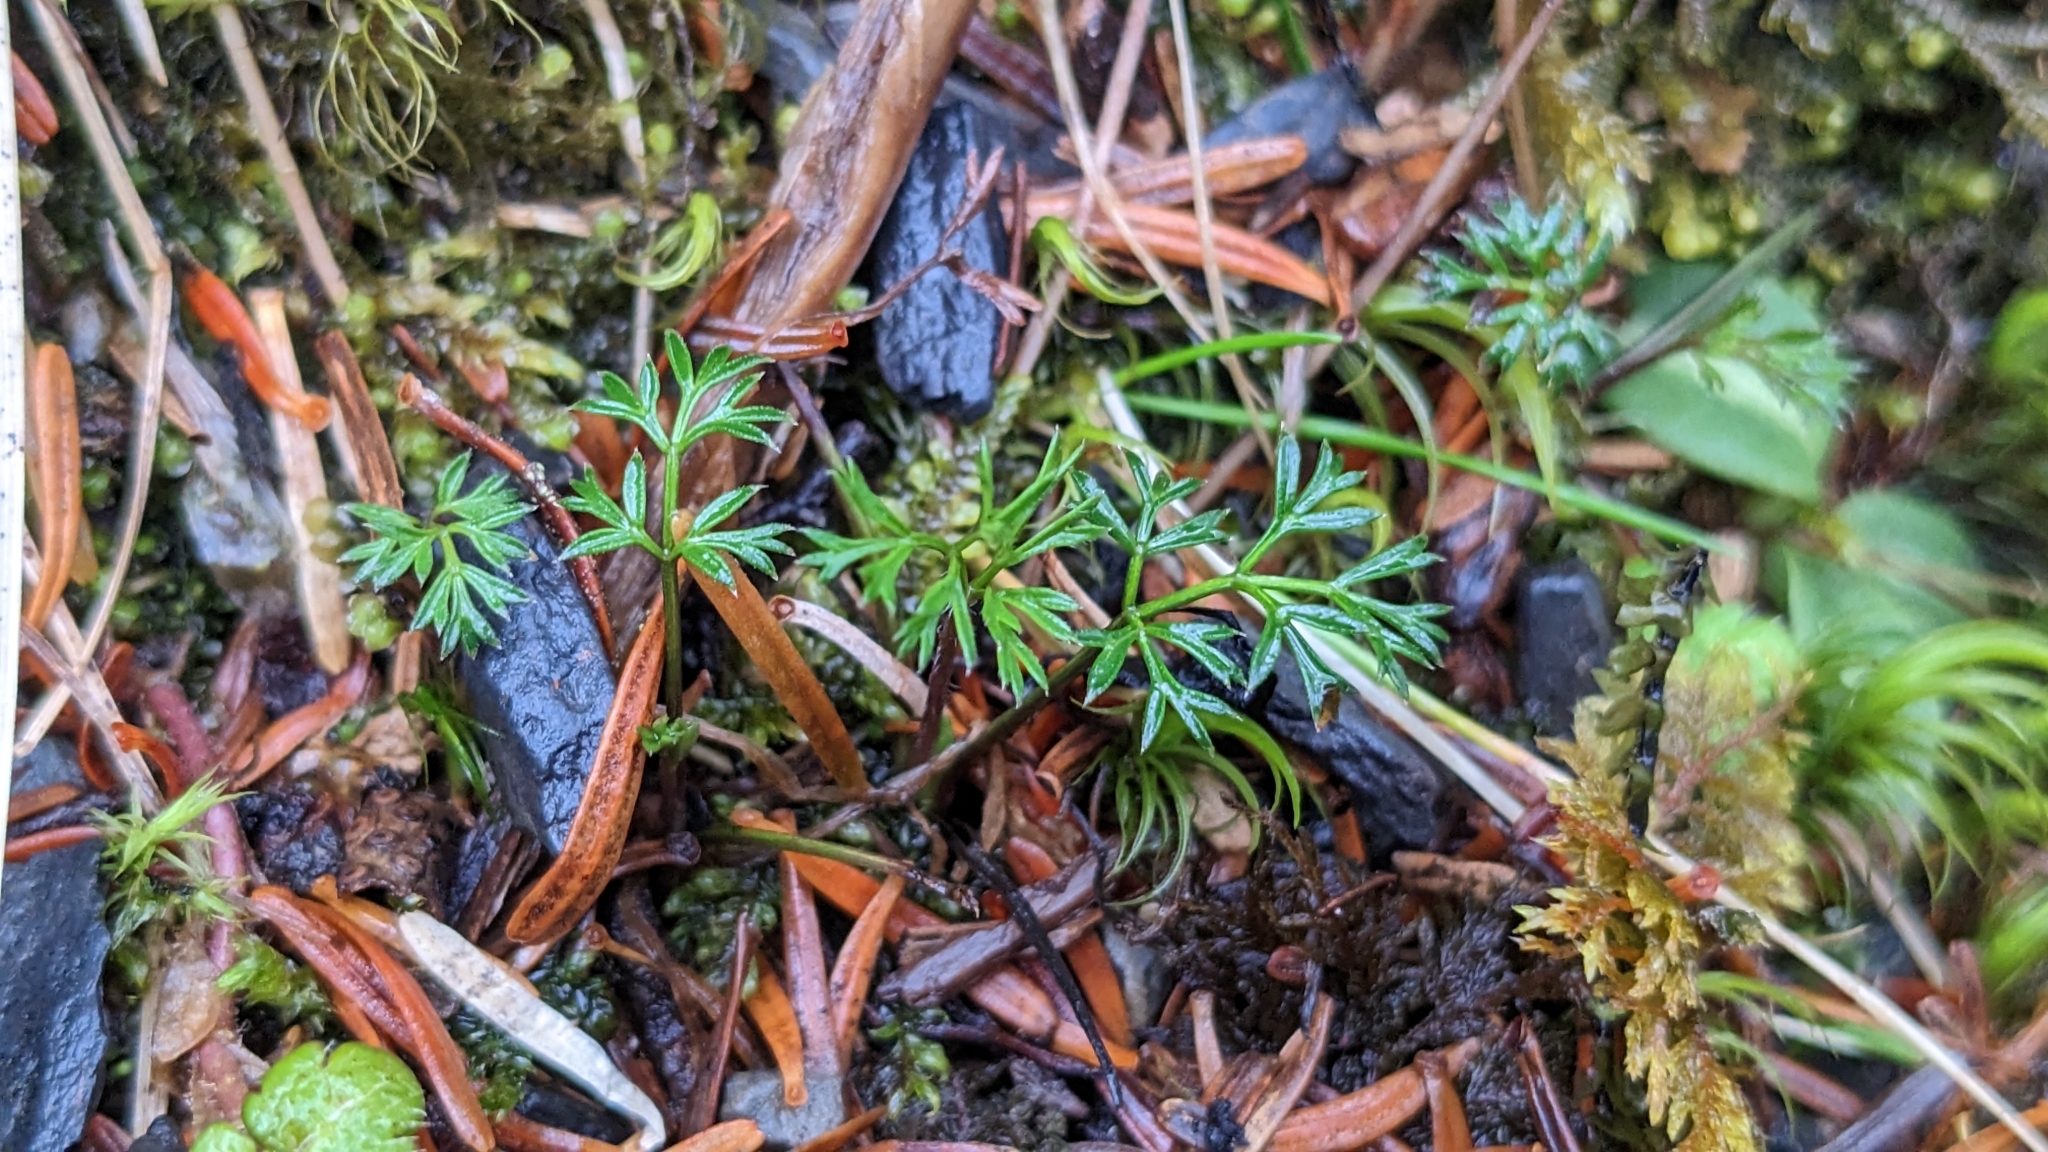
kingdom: Plantae
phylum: Tracheophyta
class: Magnoliopsida
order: Apiales
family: Apiaceae
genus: Chaerophyllum
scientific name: Chaerophyllum involucratum
